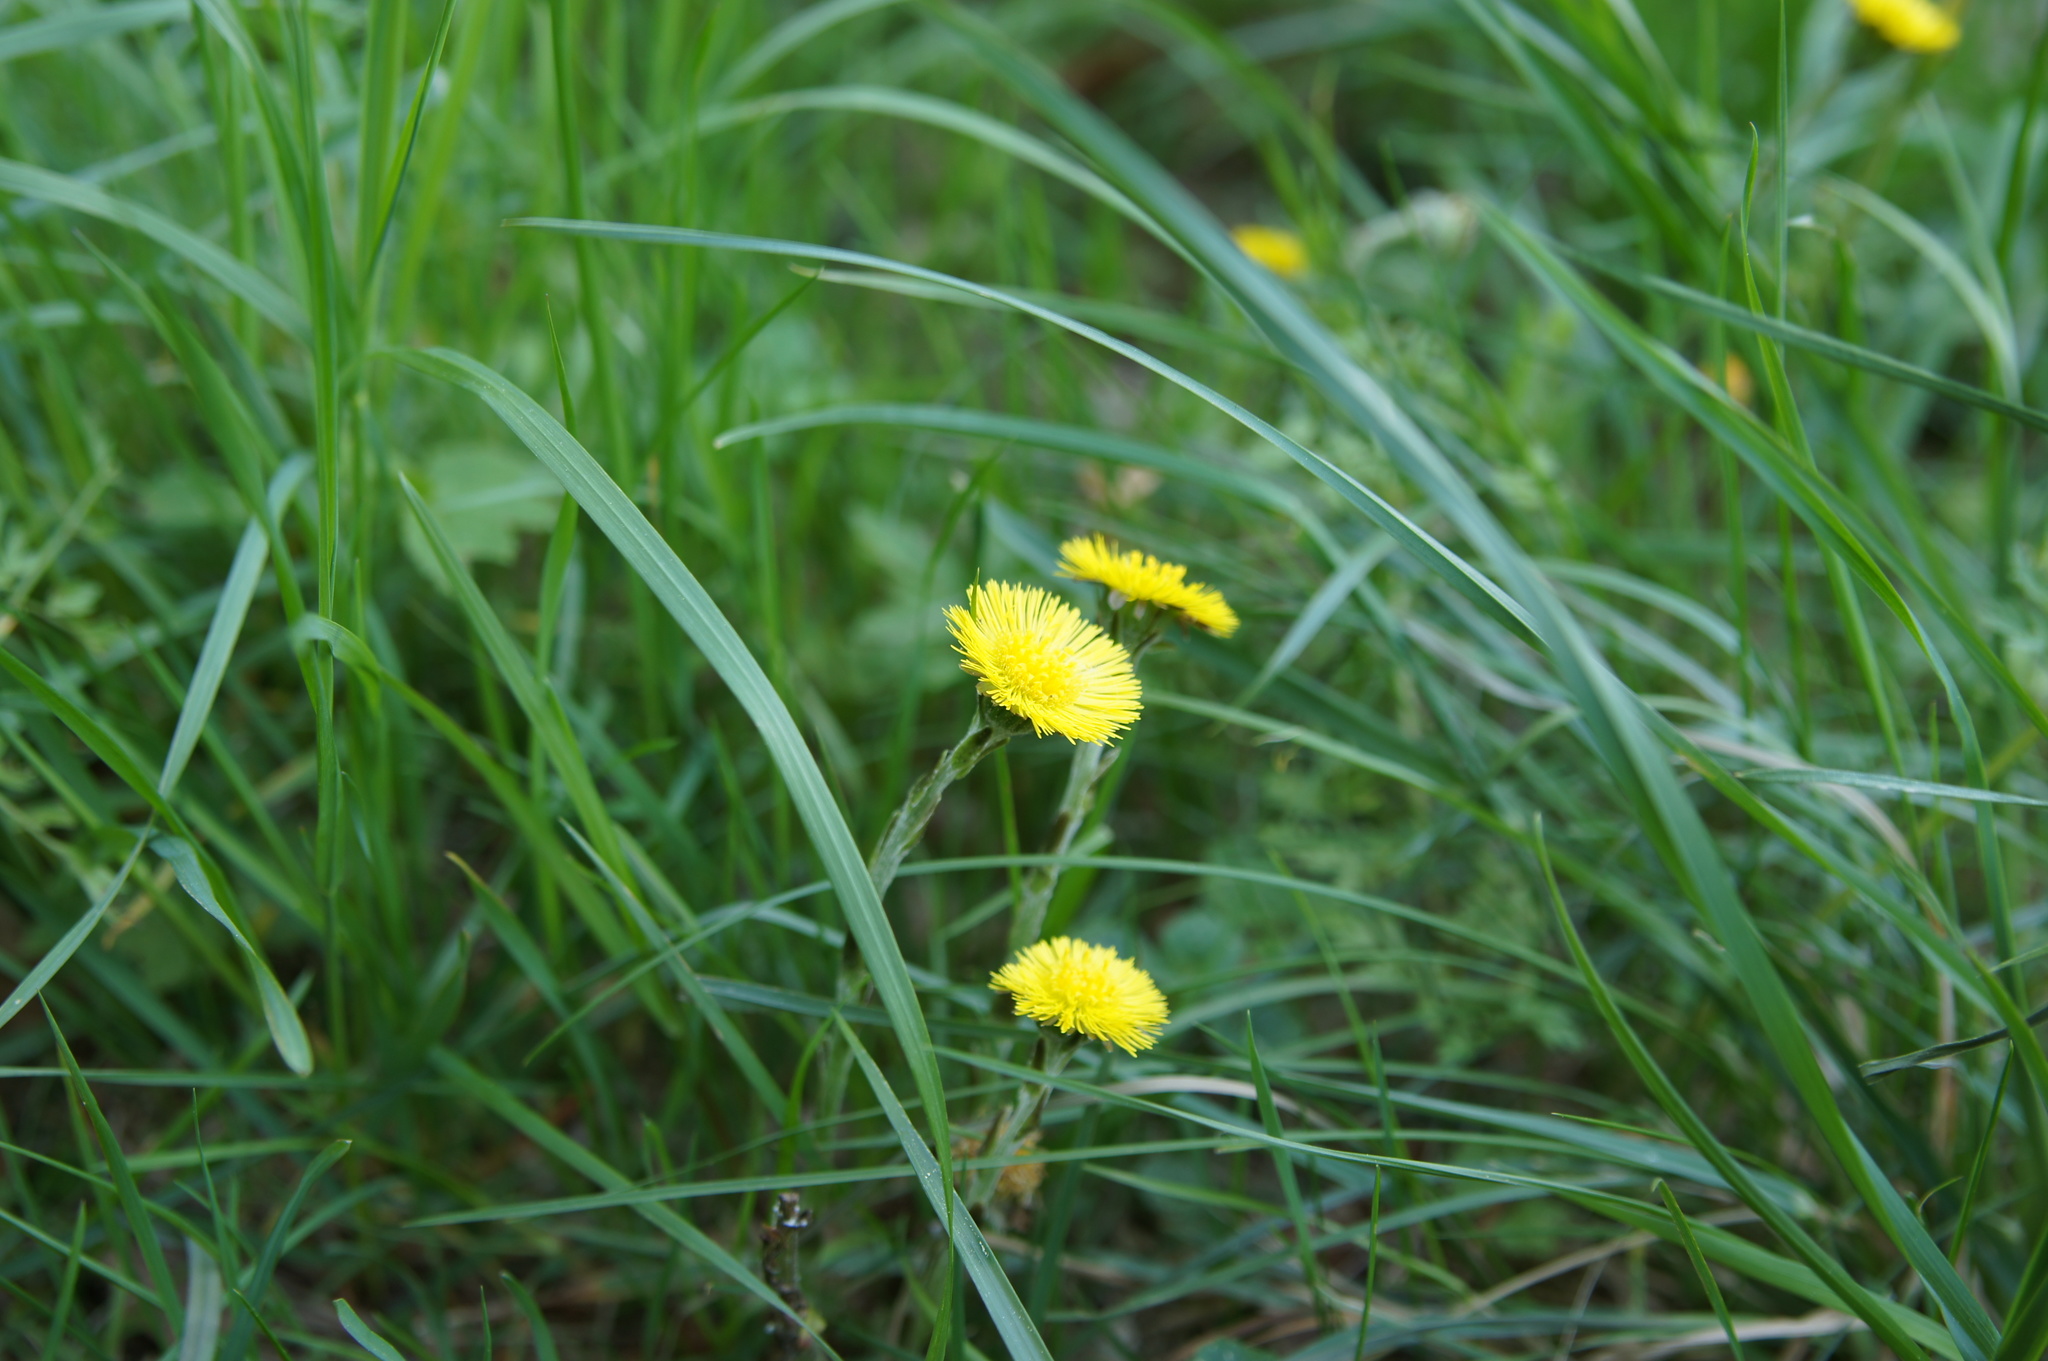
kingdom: Plantae
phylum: Tracheophyta
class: Magnoliopsida
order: Asterales
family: Asteraceae
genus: Tussilago
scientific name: Tussilago farfara
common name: Coltsfoot
